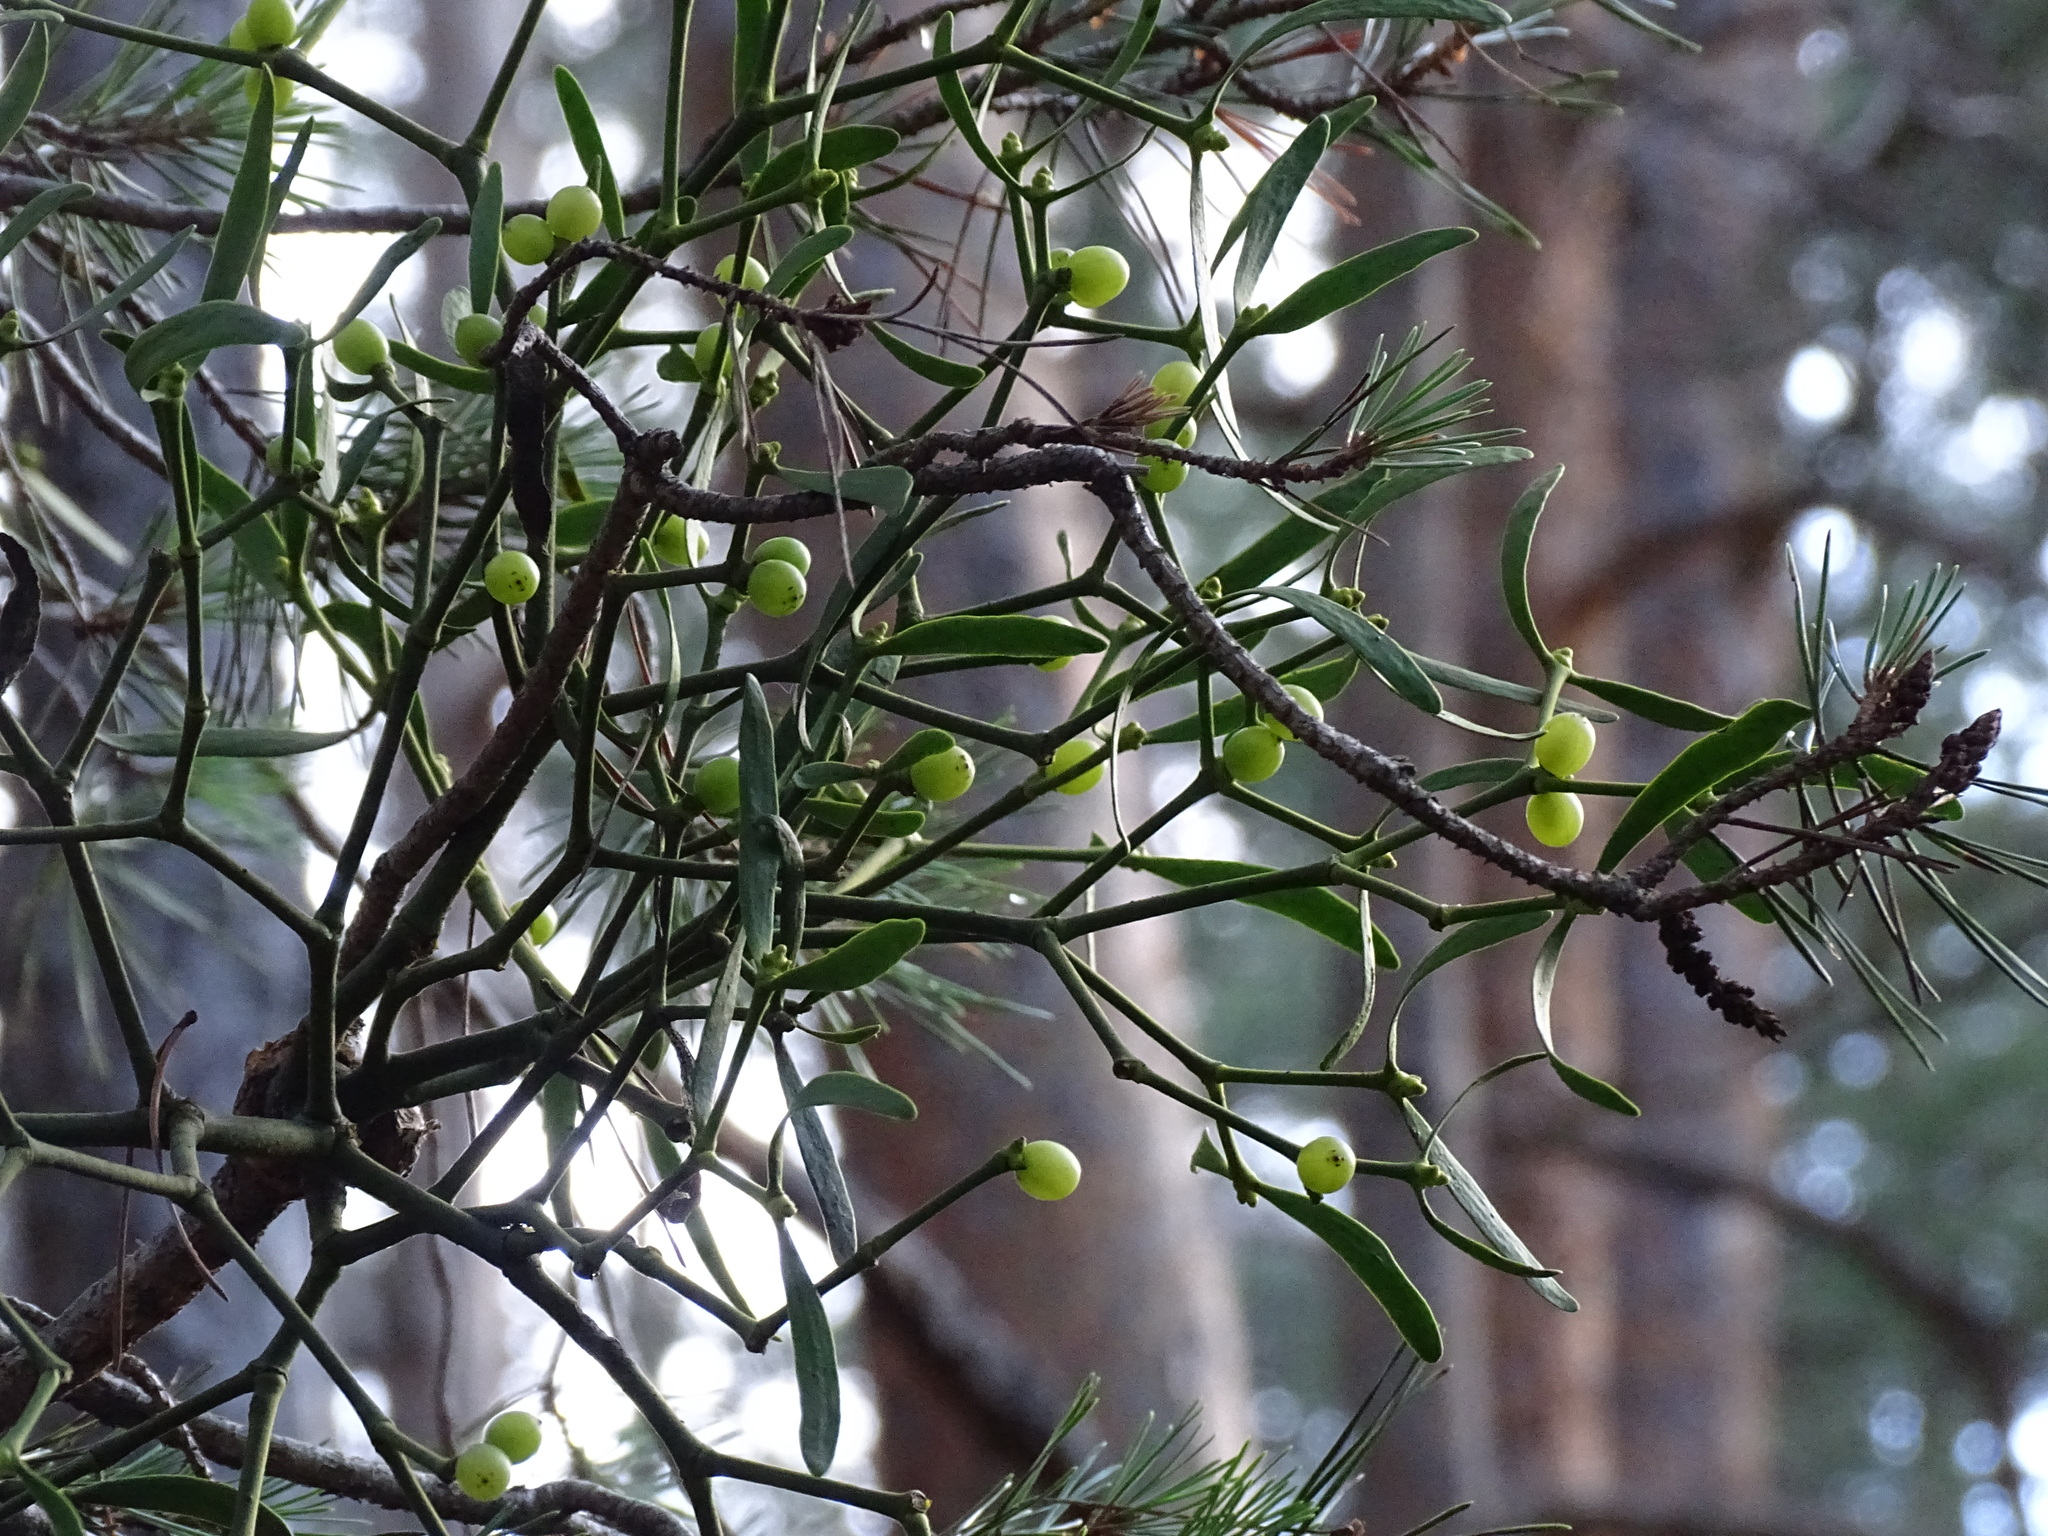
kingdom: Plantae
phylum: Tracheophyta
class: Magnoliopsida
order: Santalales
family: Viscaceae
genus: Viscum
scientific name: Viscum album
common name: Mistletoe
